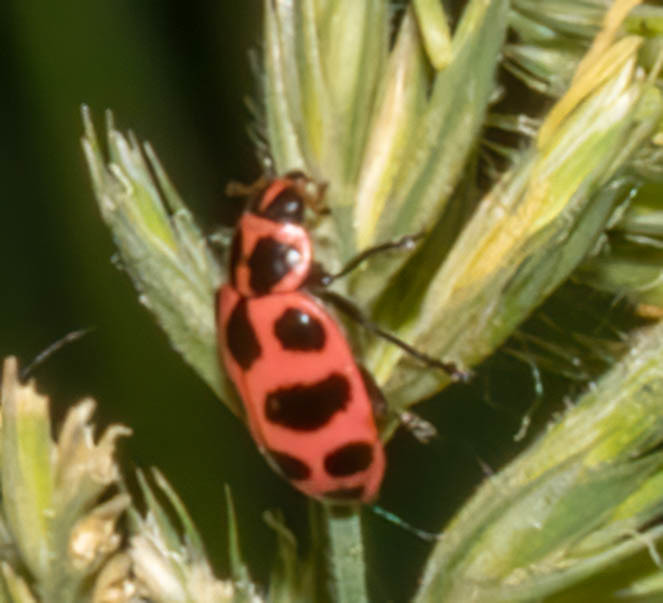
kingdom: Animalia
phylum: Arthropoda
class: Insecta
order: Coleoptera
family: Coccinellidae
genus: Coleomegilla
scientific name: Coleomegilla maculata
